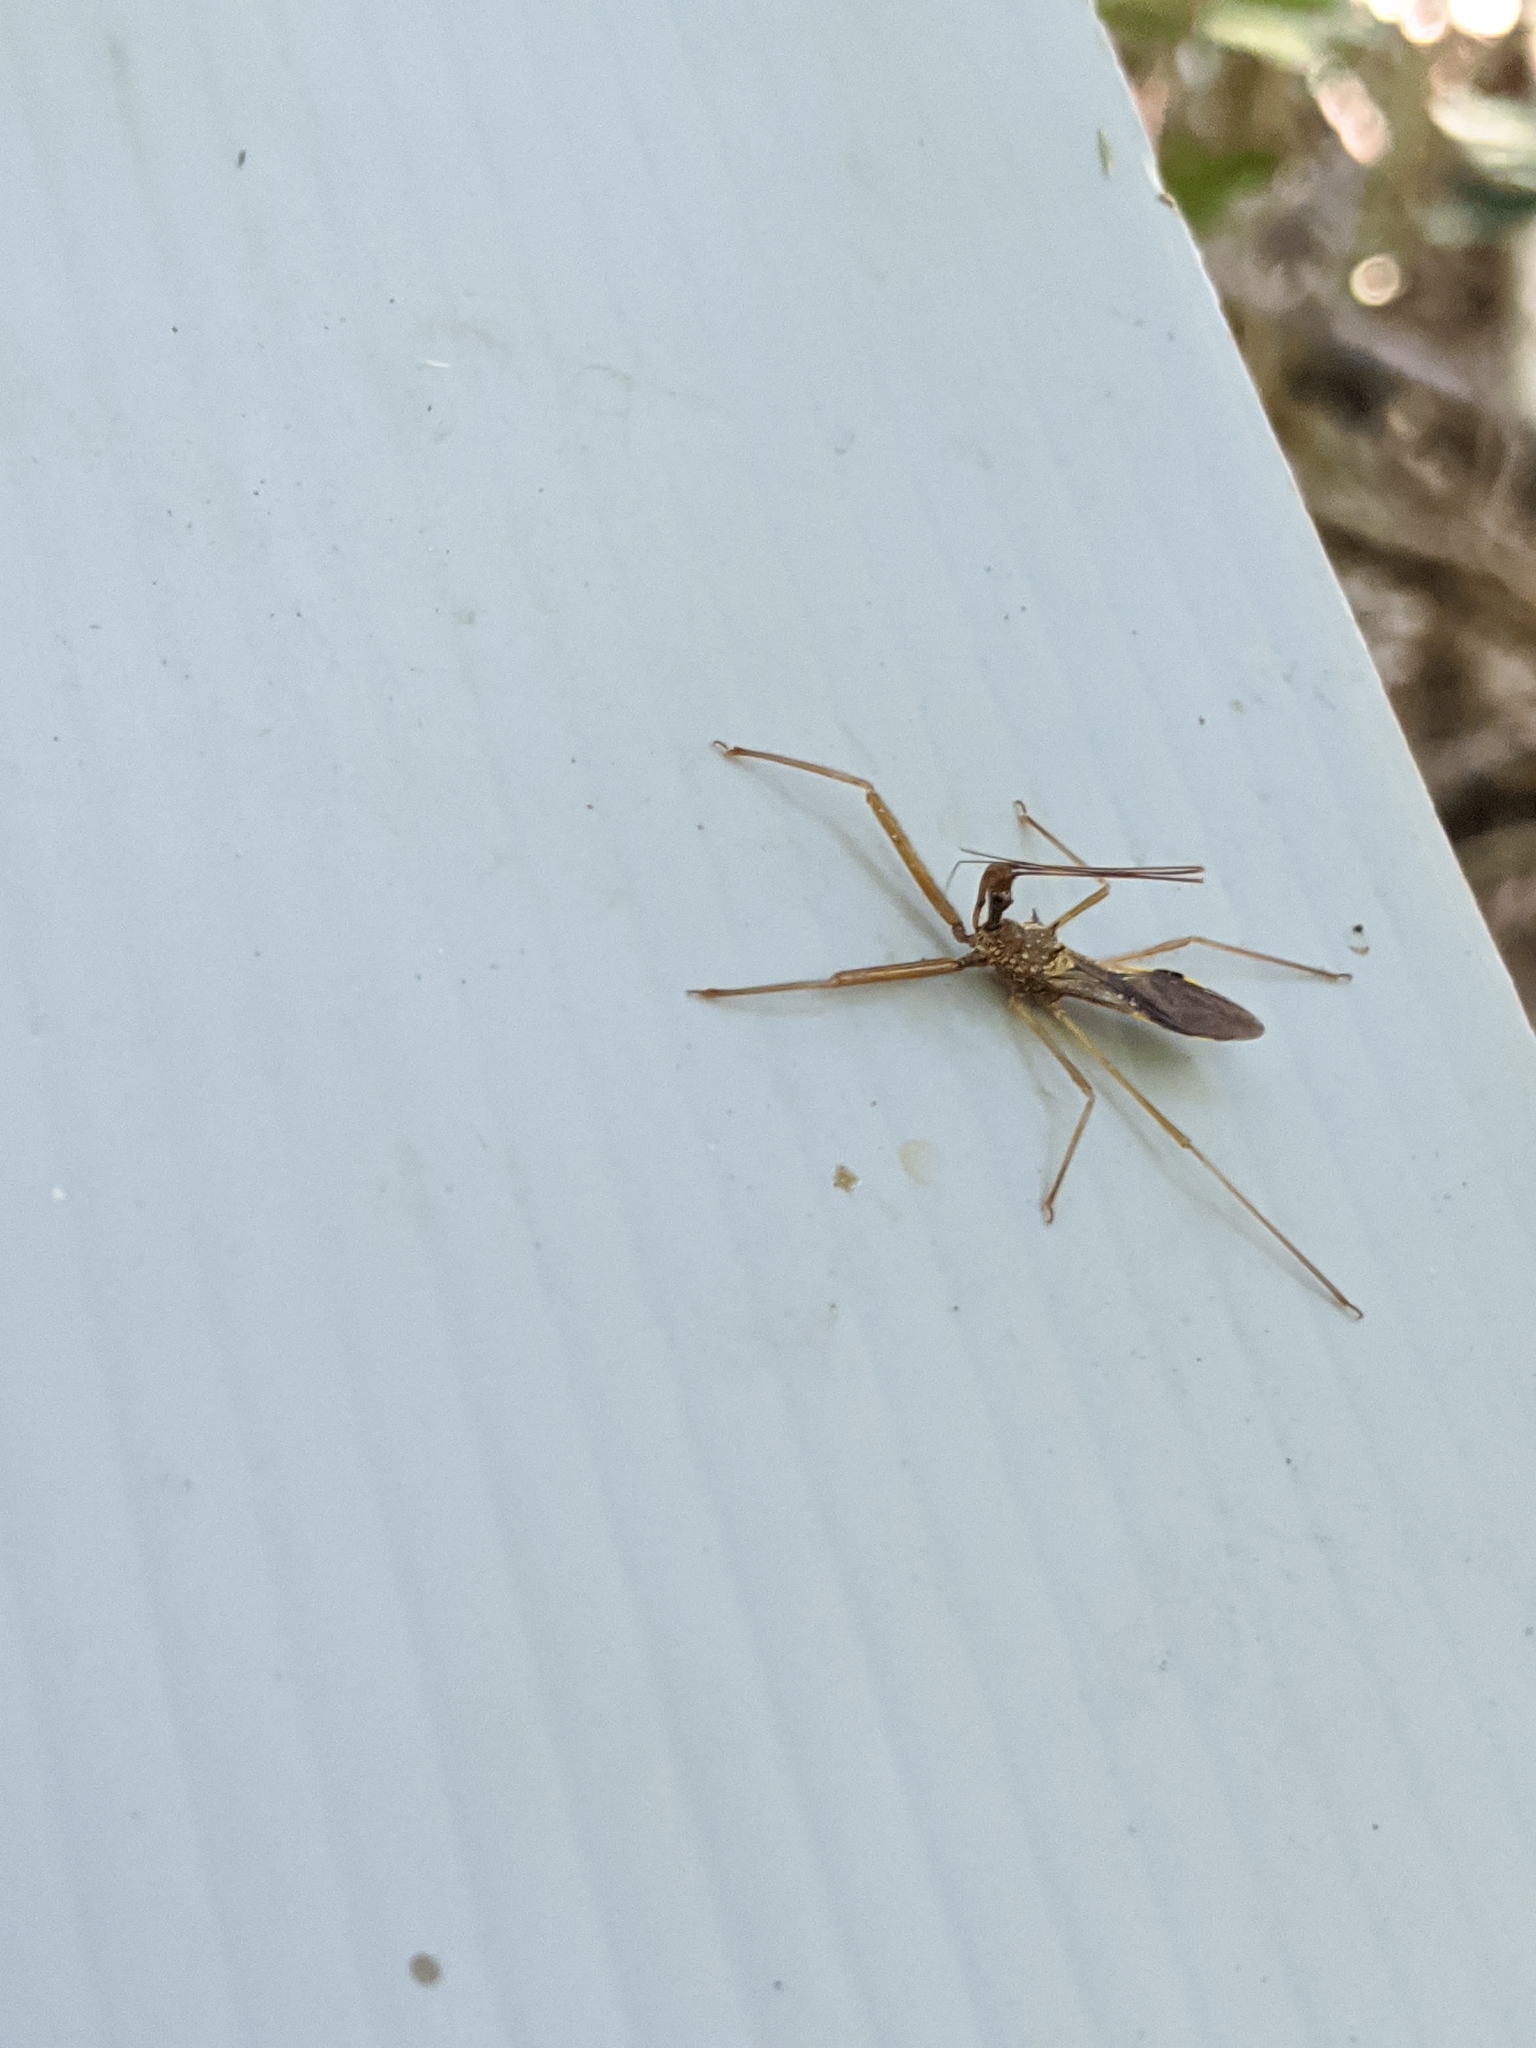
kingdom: Animalia
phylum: Arthropoda
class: Insecta
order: Hemiptera
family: Reduviidae
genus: Epidaus
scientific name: Epidaus famulus
